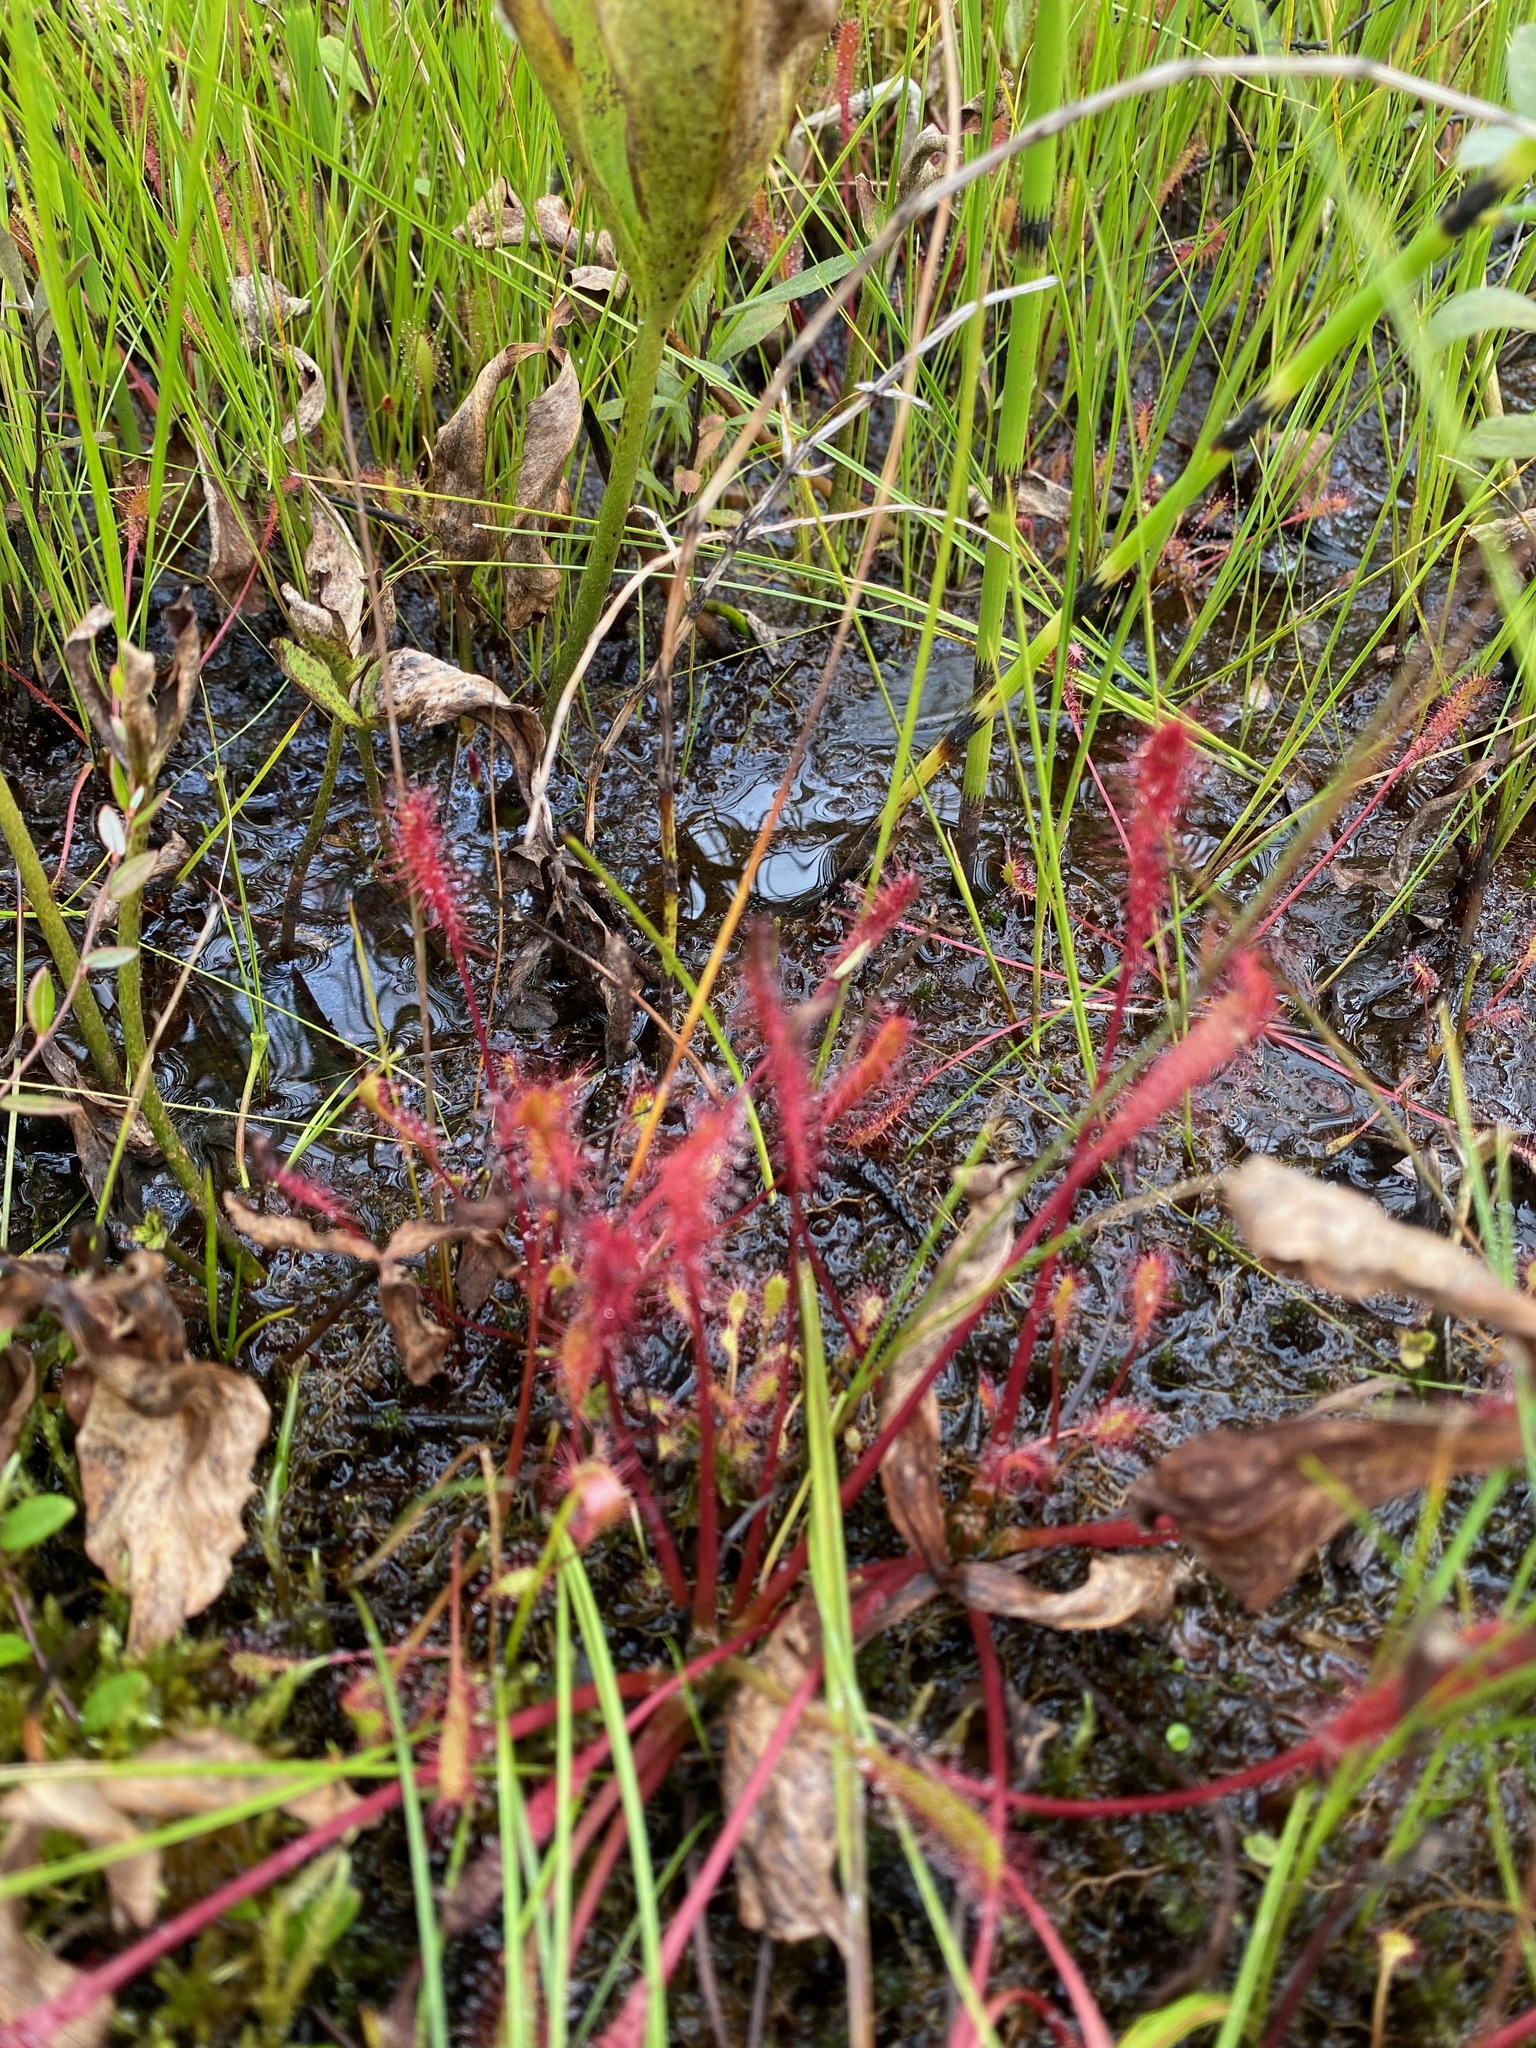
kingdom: Plantae
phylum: Tracheophyta
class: Magnoliopsida
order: Caryophyllales
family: Droseraceae
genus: Drosera
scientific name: Drosera anglica
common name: Great sundew
